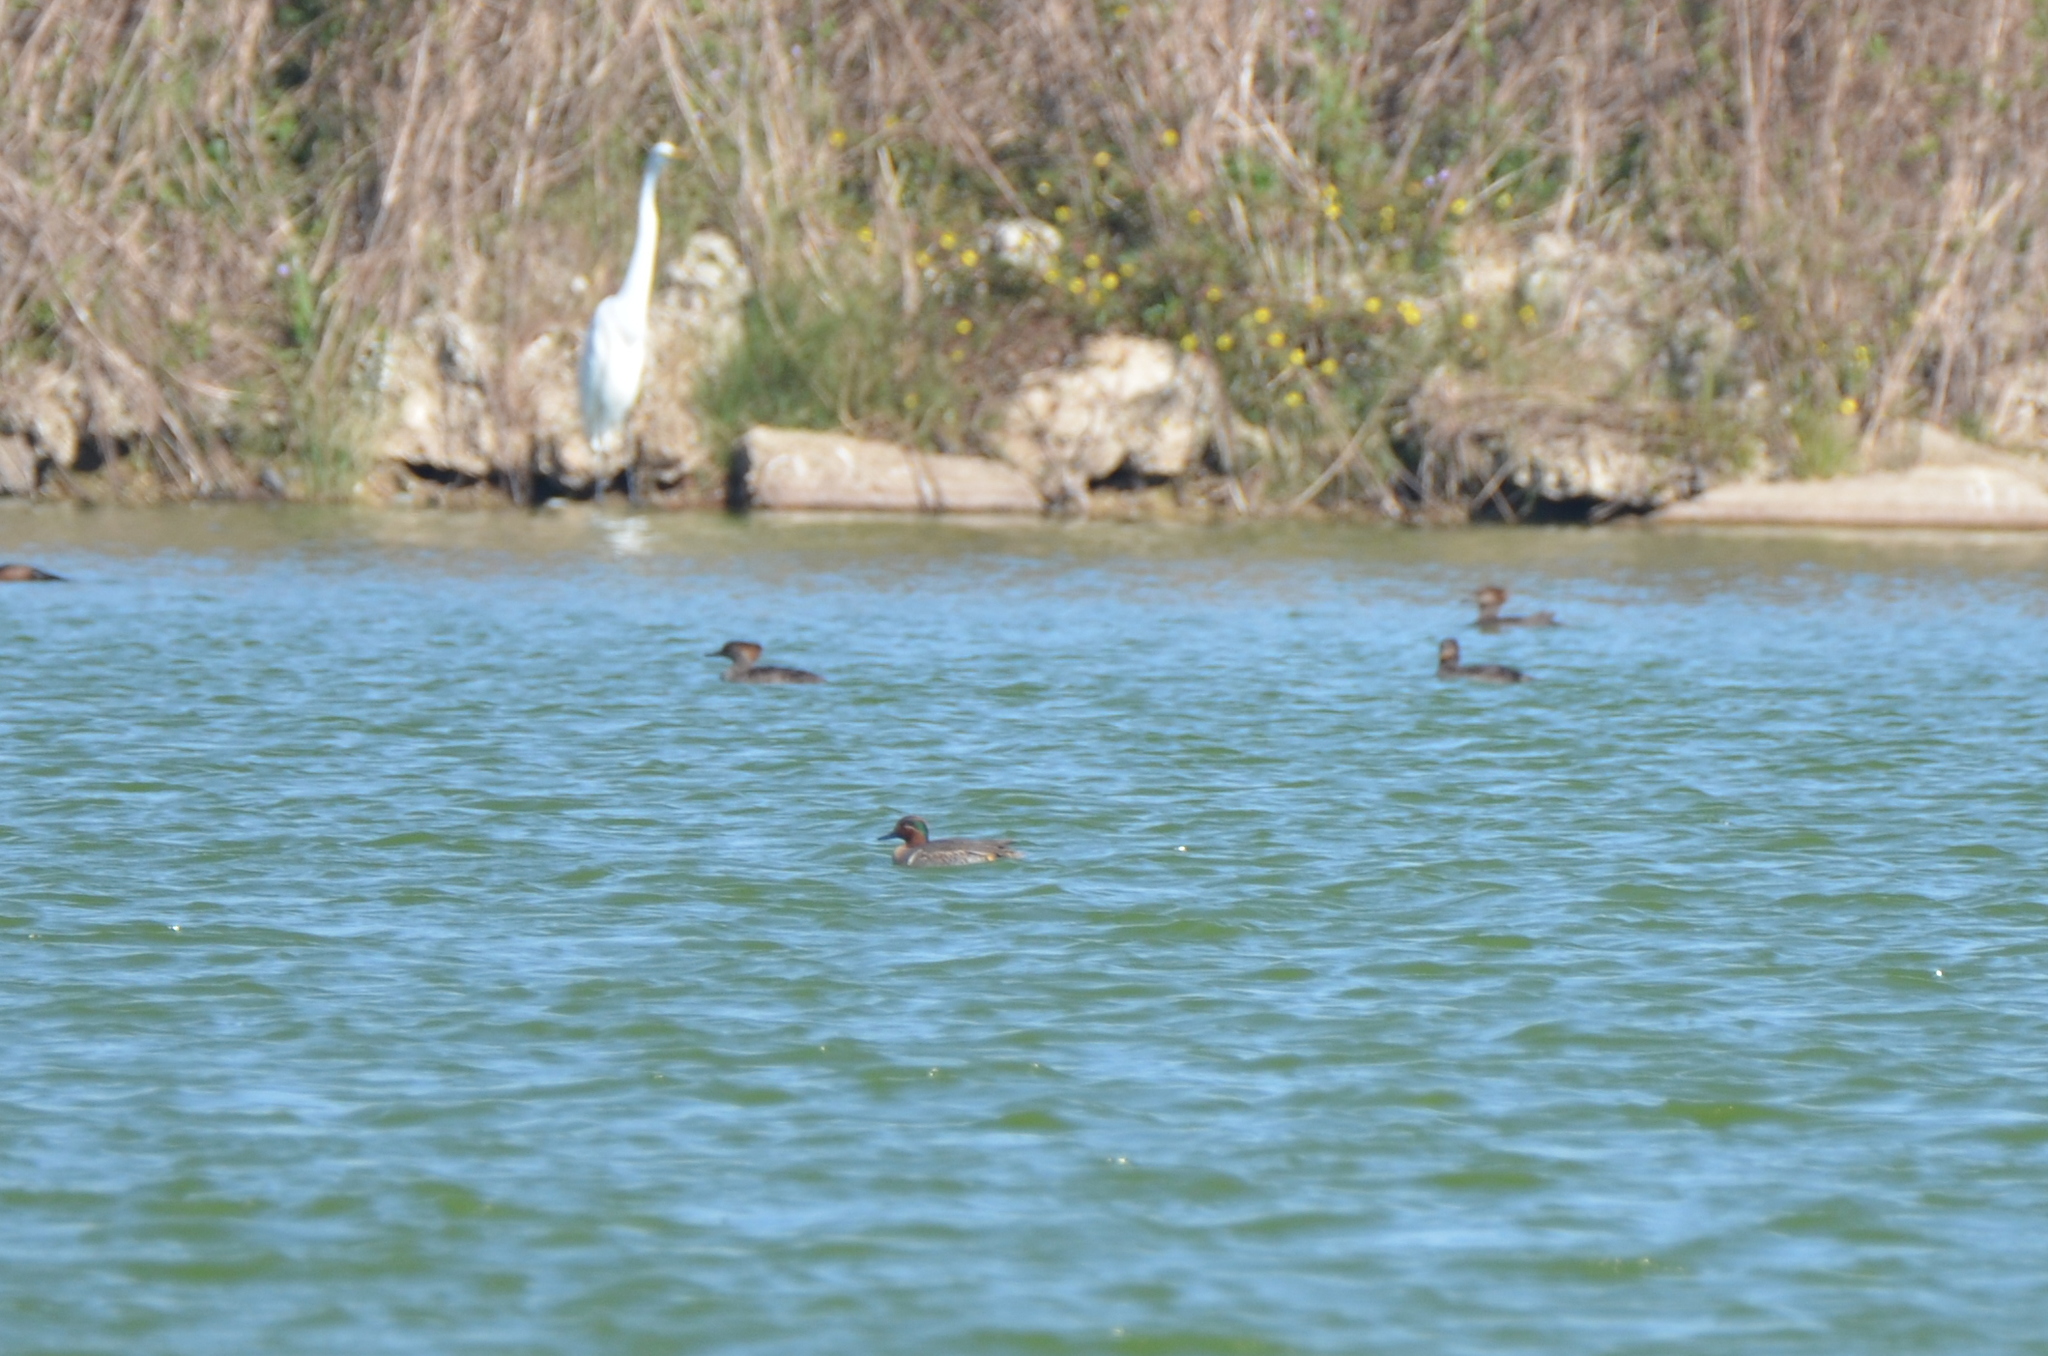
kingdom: Animalia
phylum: Chordata
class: Aves
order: Anseriformes
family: Anatidae
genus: Anas
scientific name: Anas crecca
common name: Eurasian teal
